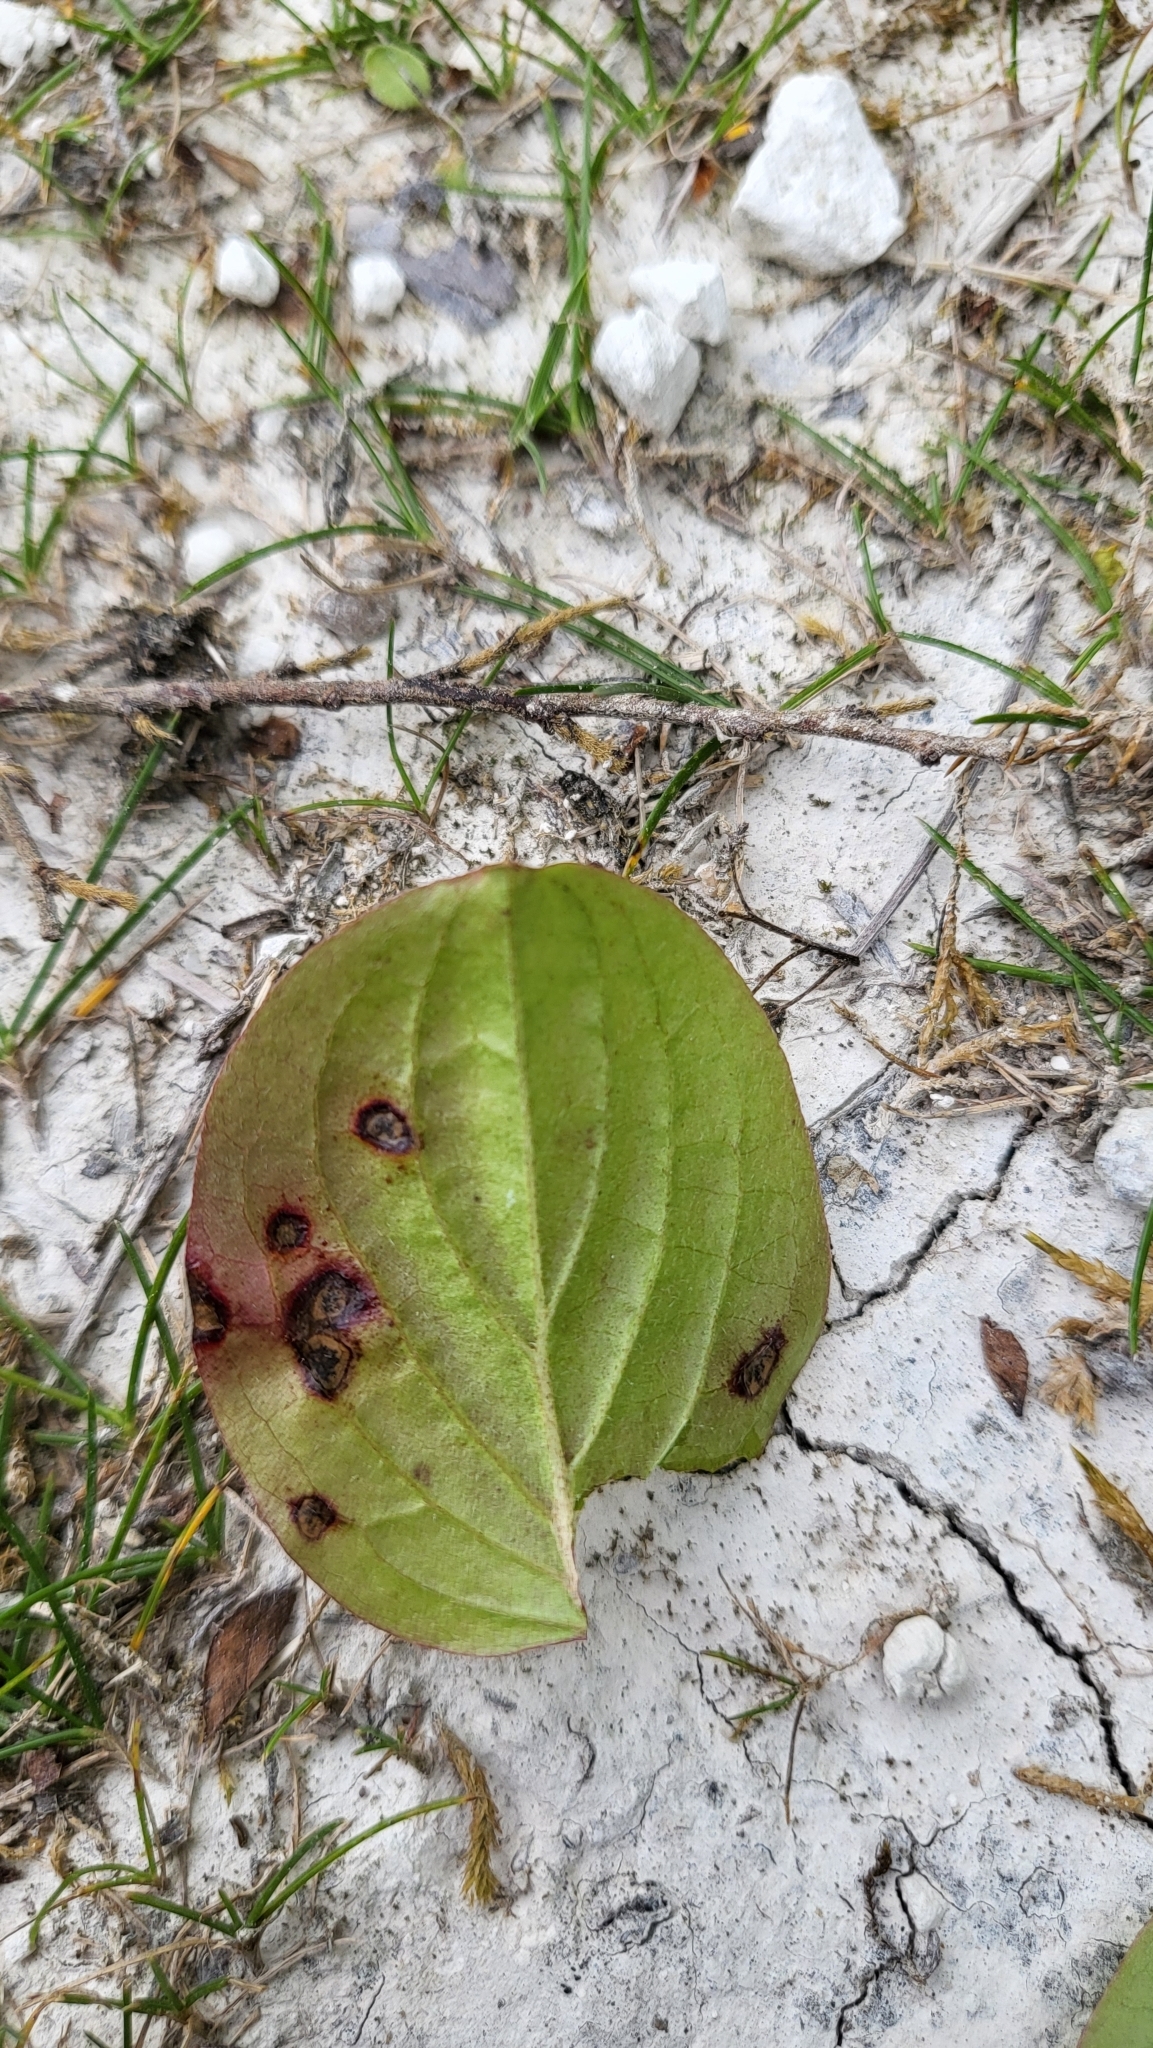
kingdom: Fungi
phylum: Ascomycota
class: Dothideomycetes
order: Mycosphaerellales
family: Mycosphaerellaceae
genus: Sphaerulina
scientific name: Sphaerulina cornicola
